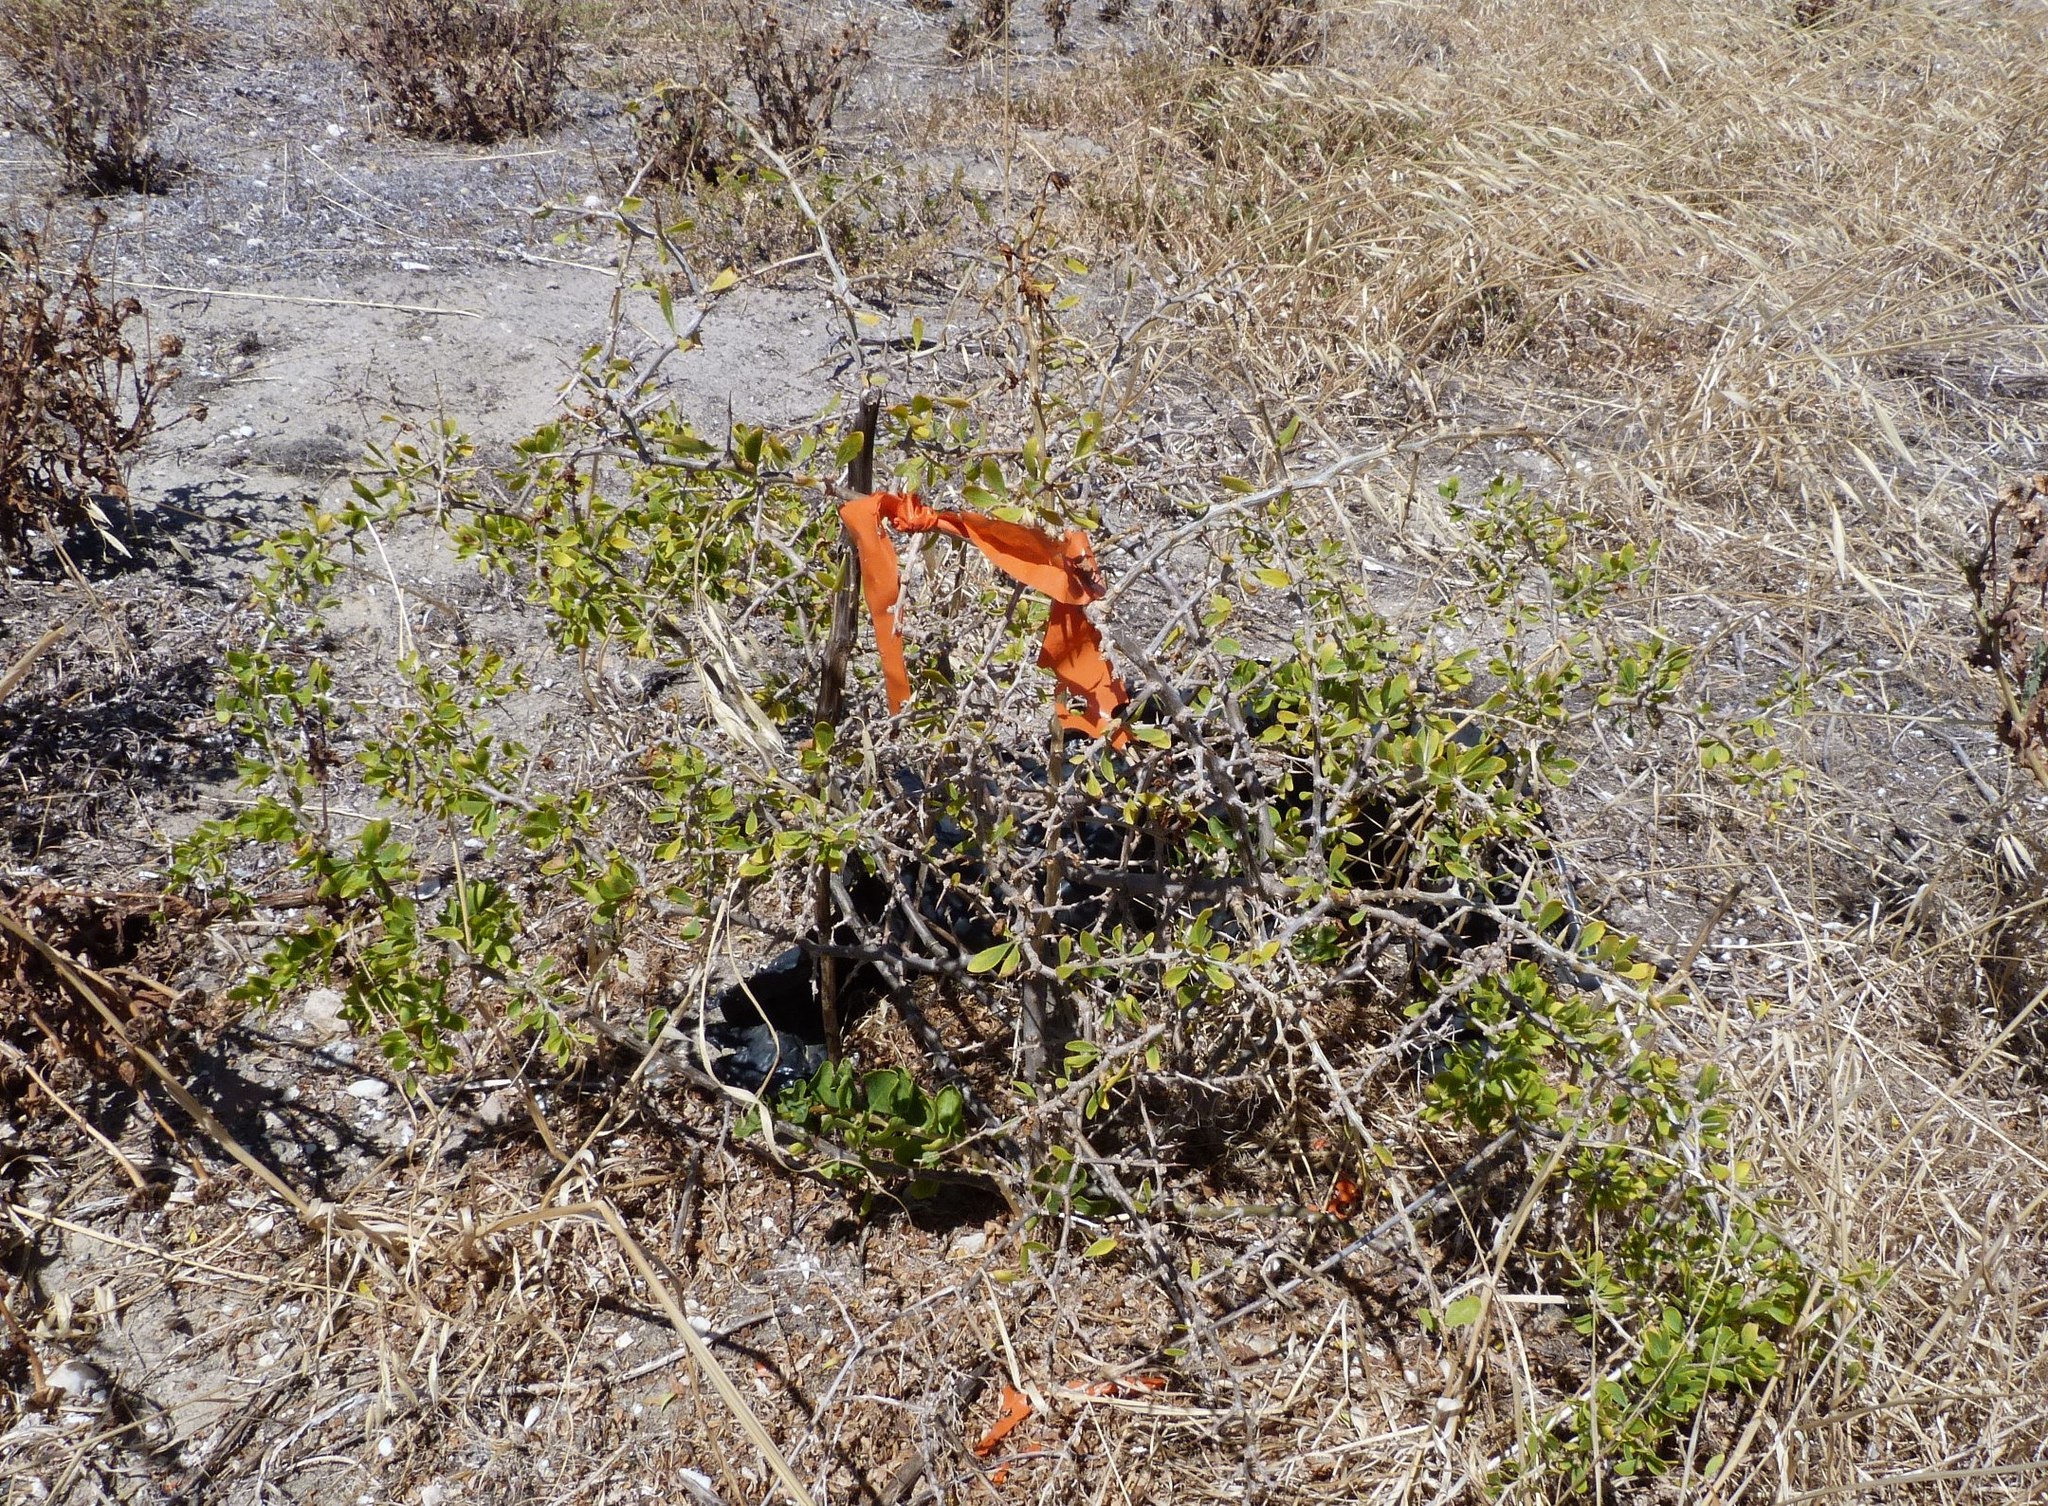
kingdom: Plantae
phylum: Tracheophyta
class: Magnoliopsida
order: Solanales
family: Solanaceae
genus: Lycium
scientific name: Lycium ferocissimum
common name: African boxthorn
